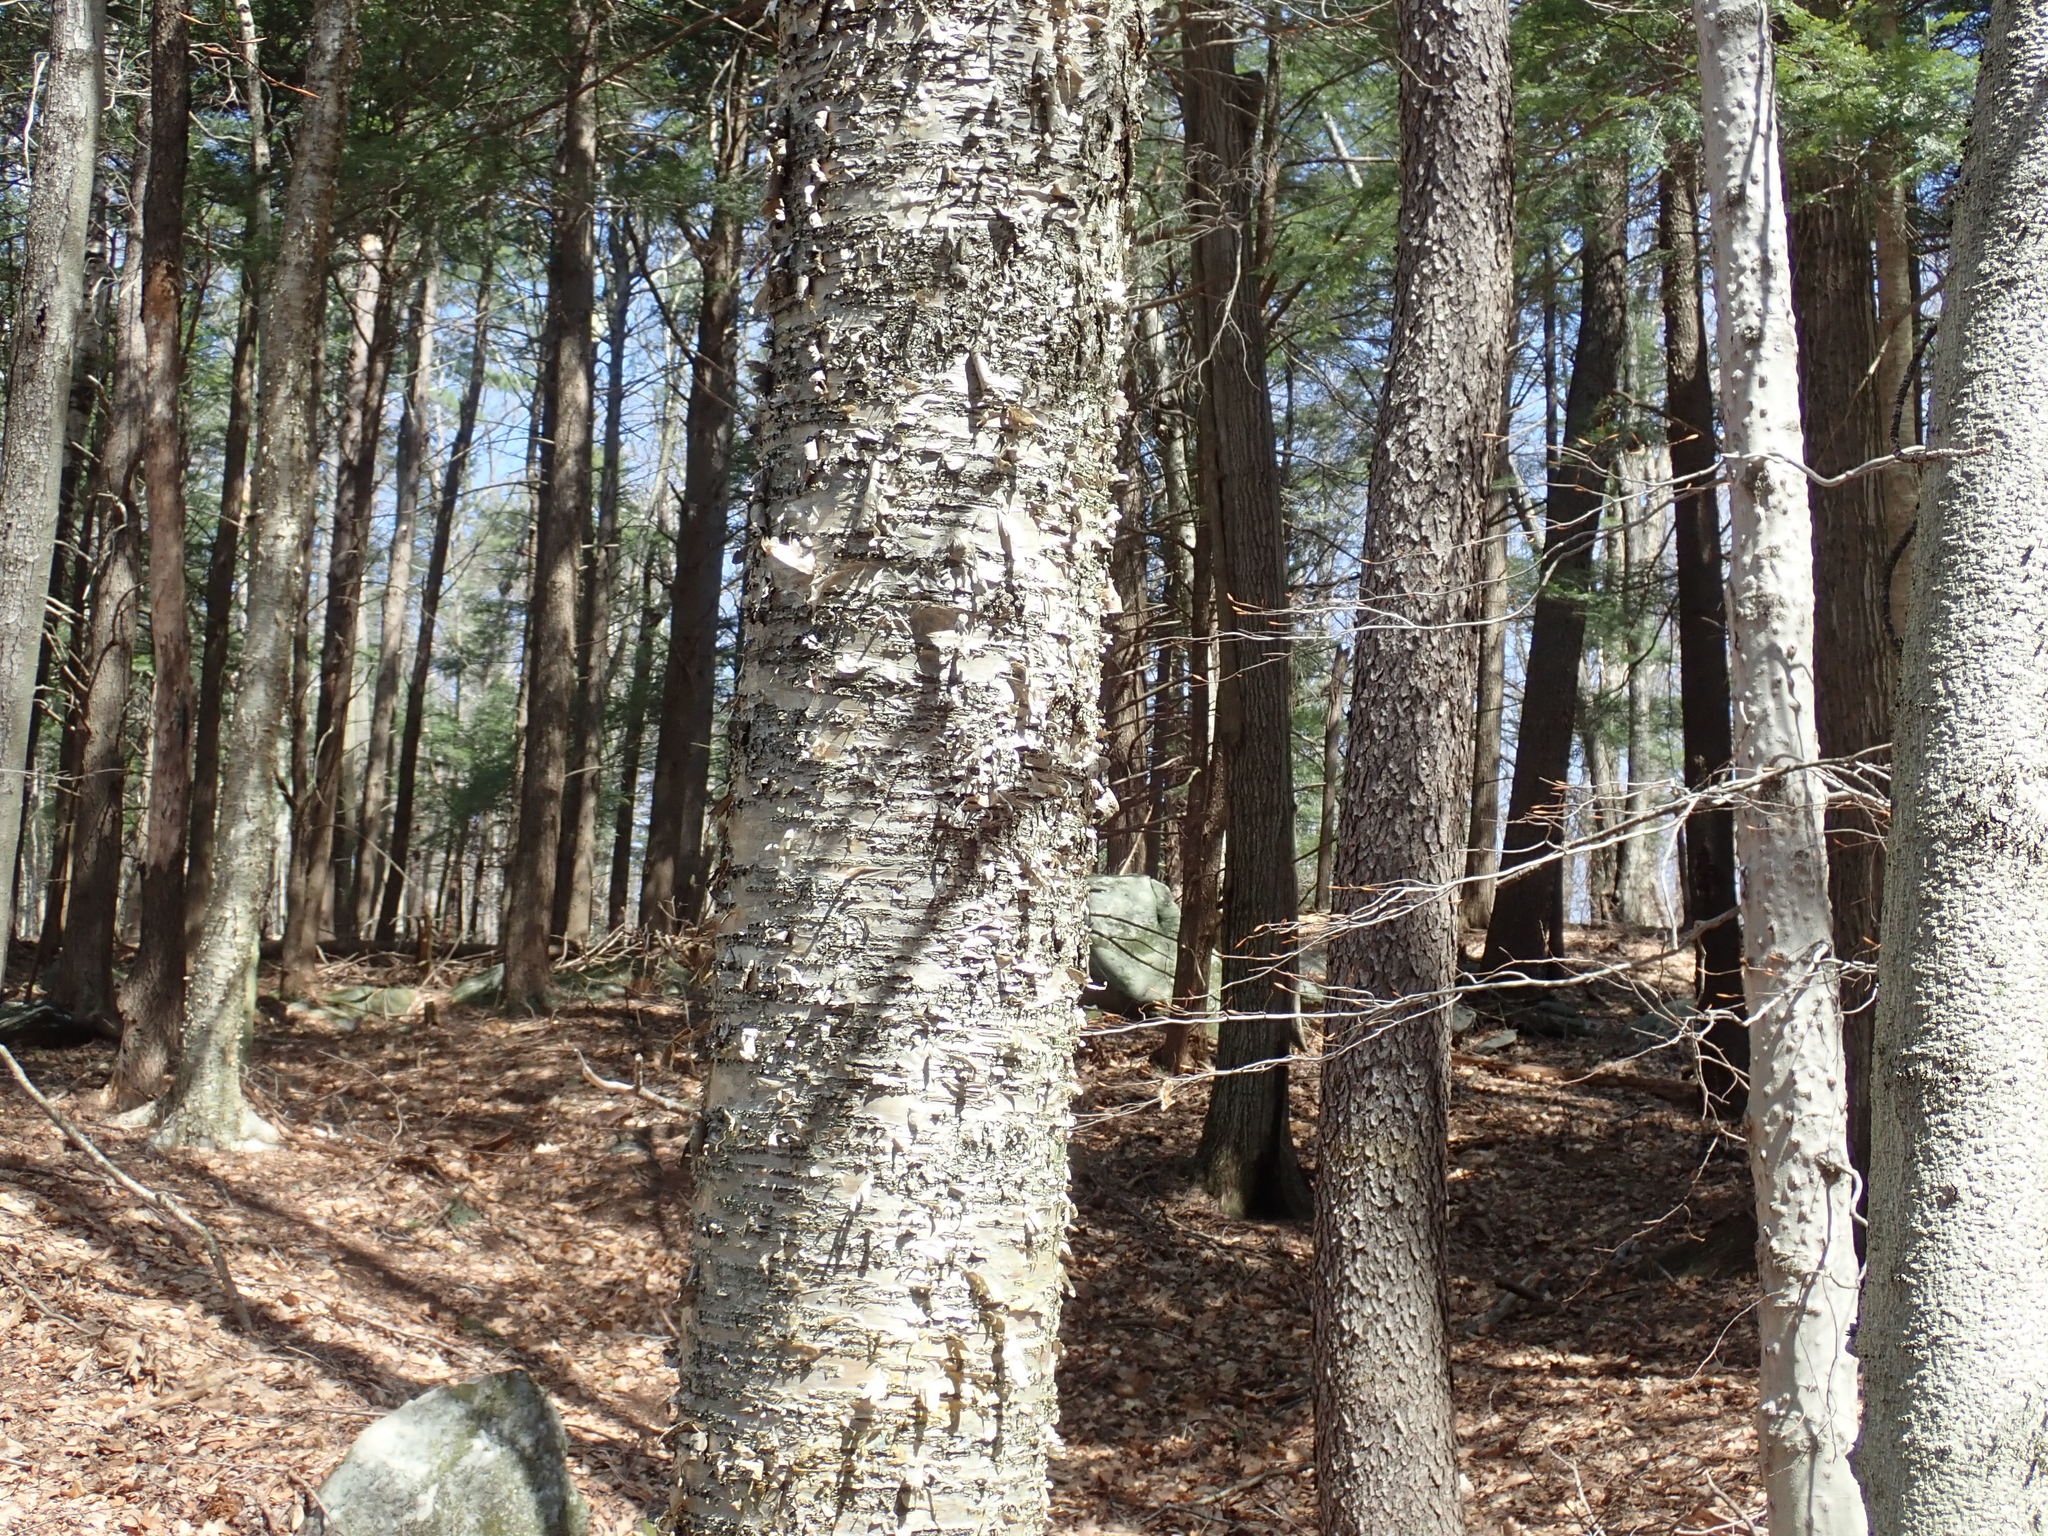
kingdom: Plantae
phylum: Tracheophyta
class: Magnoliopsida
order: Fagales
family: Betulaceae
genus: Betula
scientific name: Betula alleghaniensis
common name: Yellow birch
